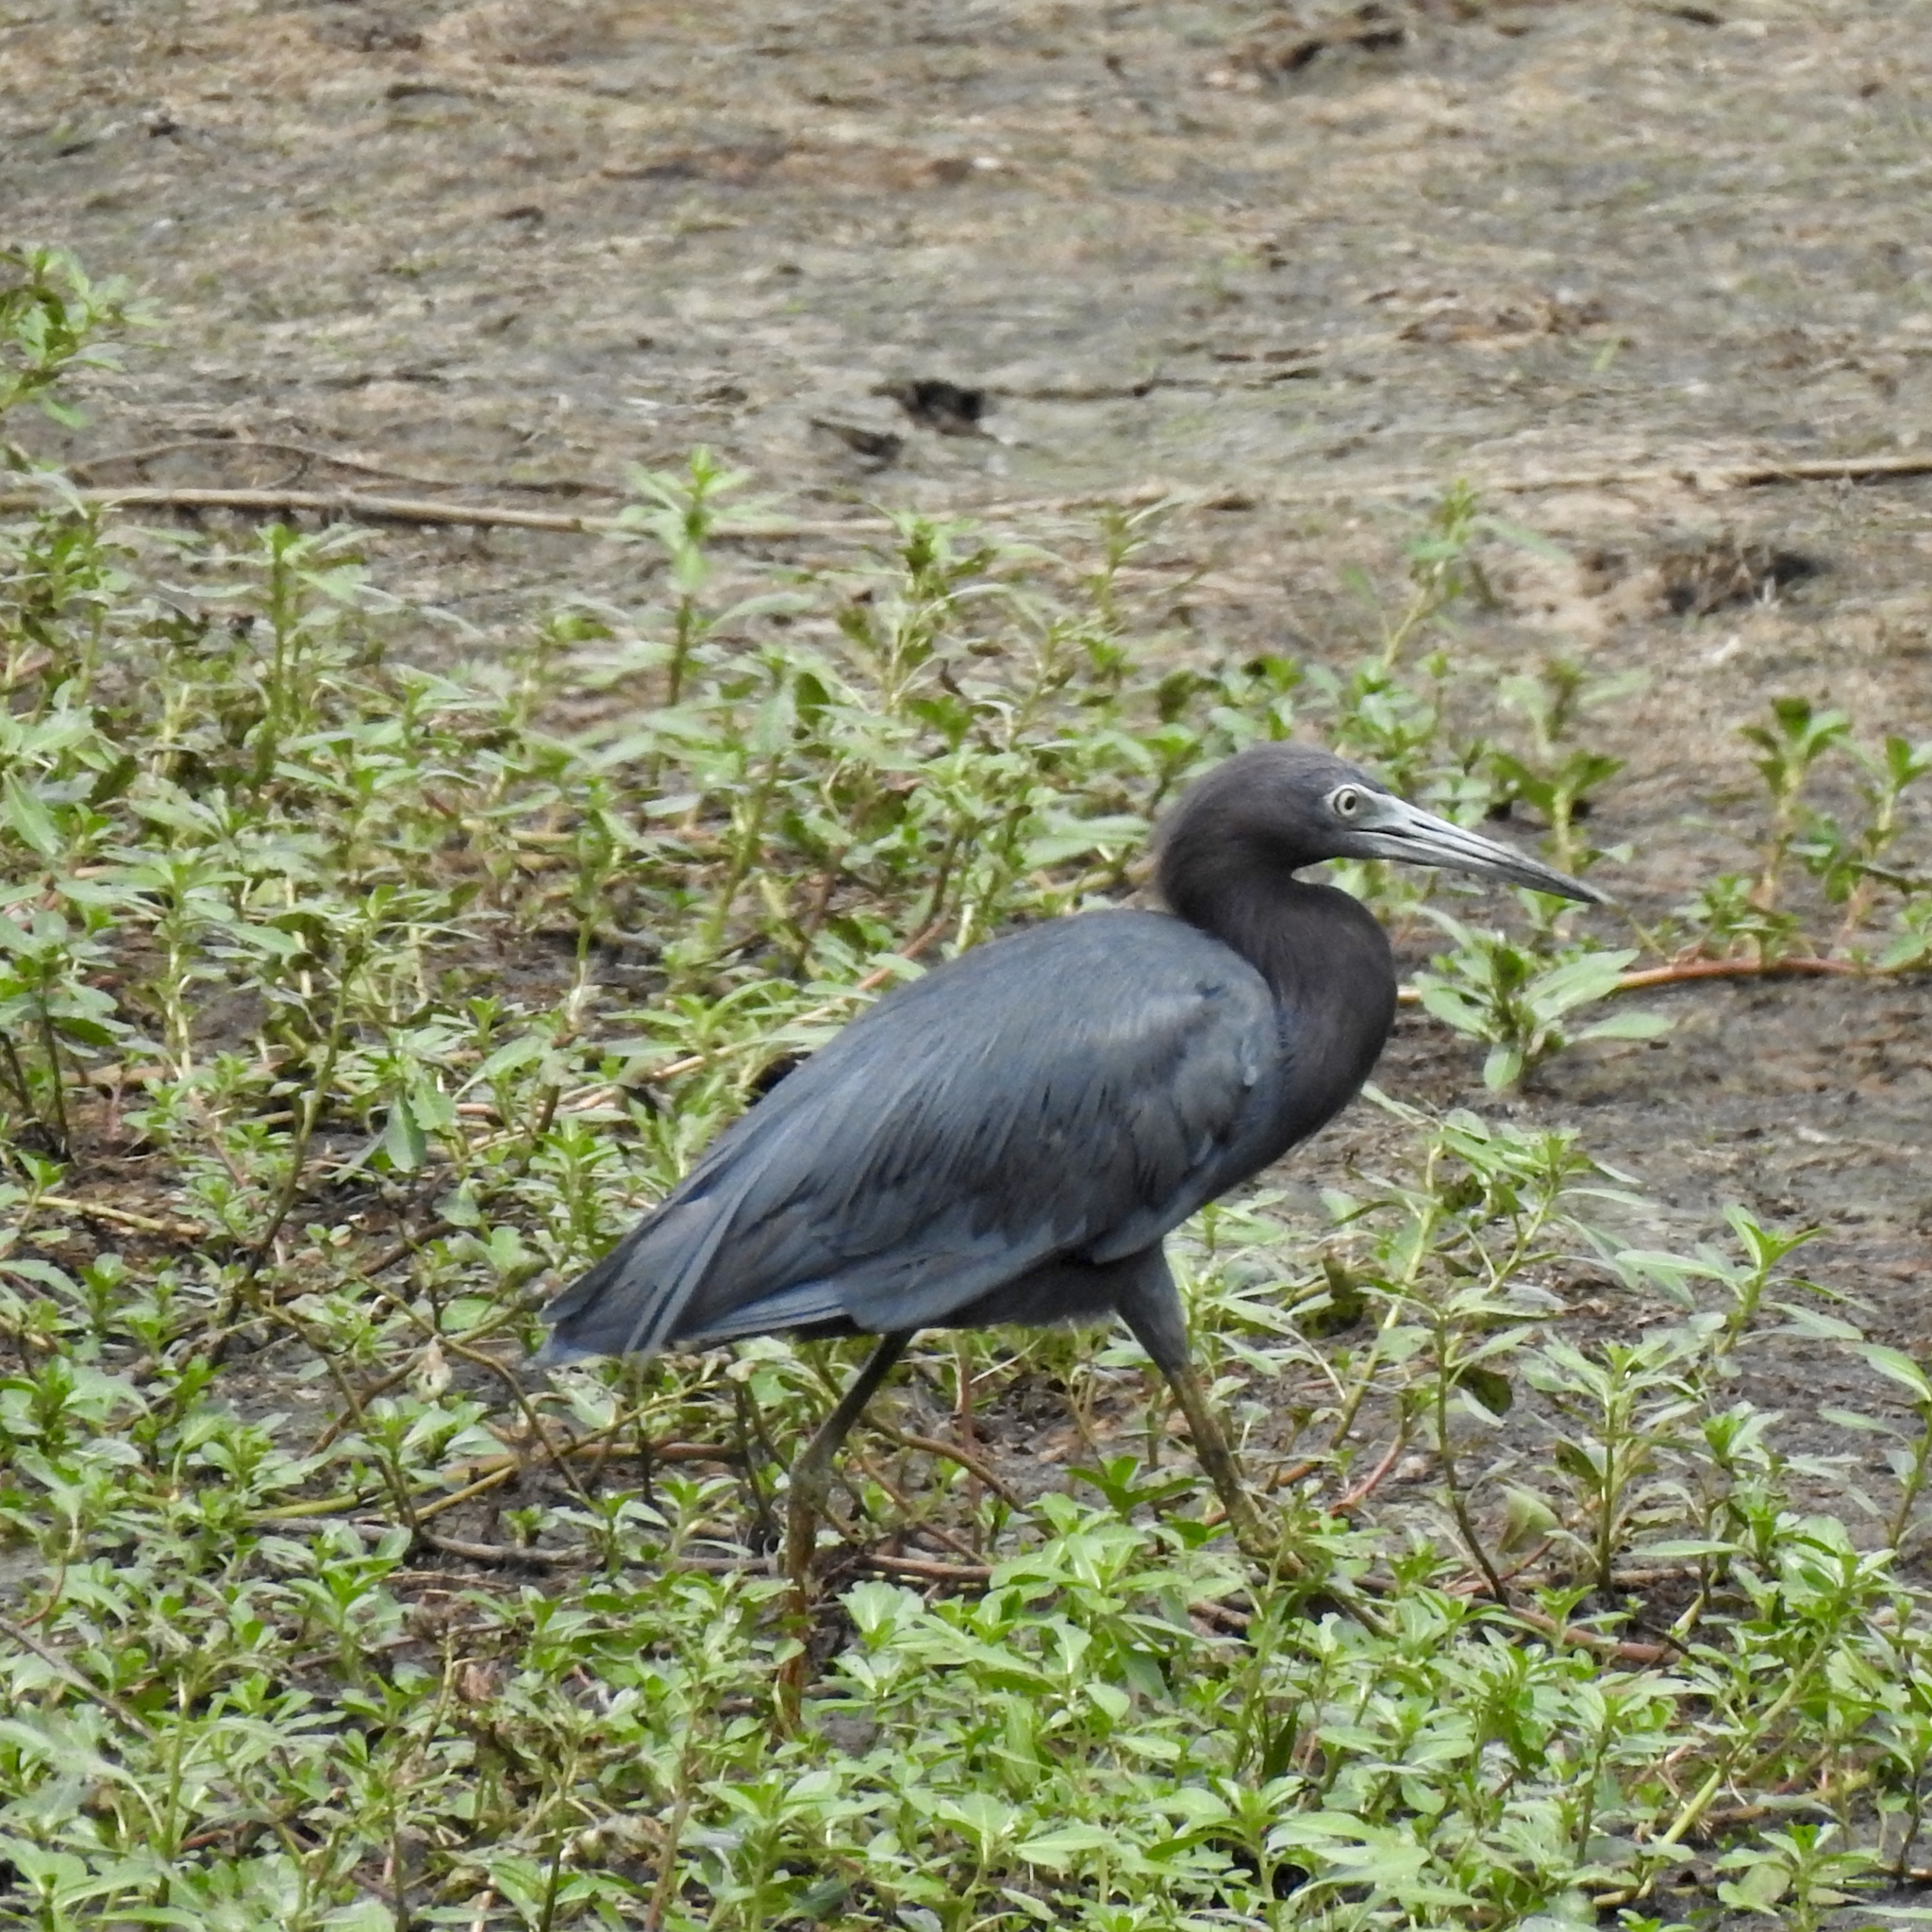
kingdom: Animalia
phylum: Chordata
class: Aves
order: Pelecaniformes
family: Ardeidae
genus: Egretta
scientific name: Egretta caerulea
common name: Little blue heron
